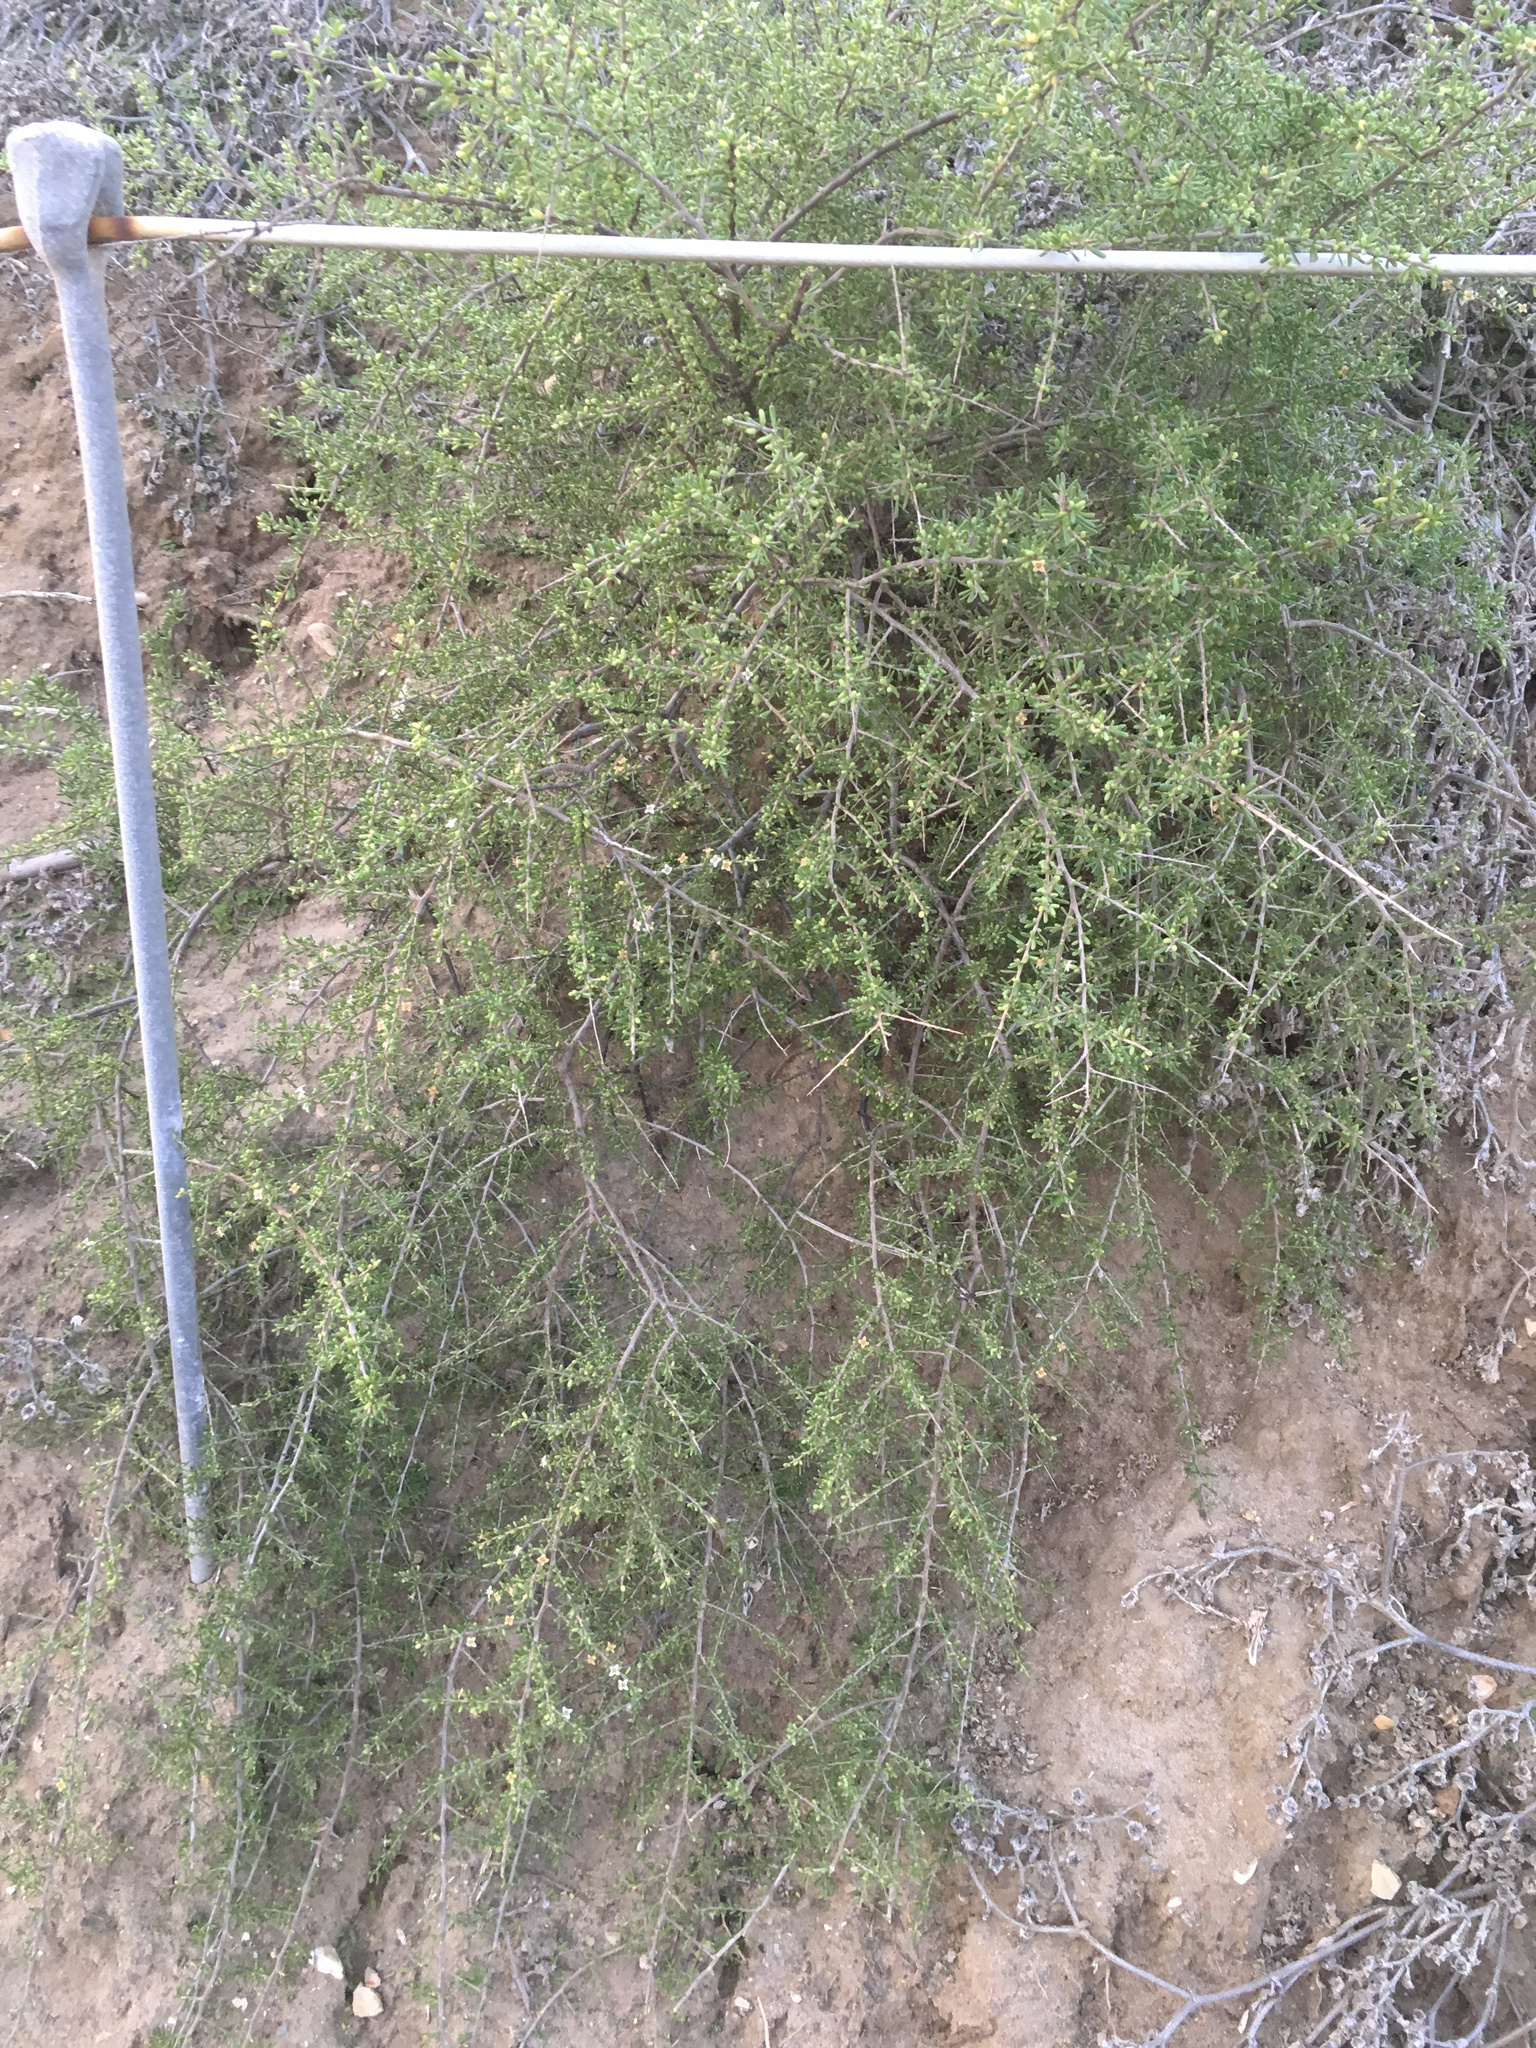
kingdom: Plantae
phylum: Tracheophyta
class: Magnoliopsida
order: Solanales
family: Solanaceae
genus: Lycium
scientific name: Lycium californicum
